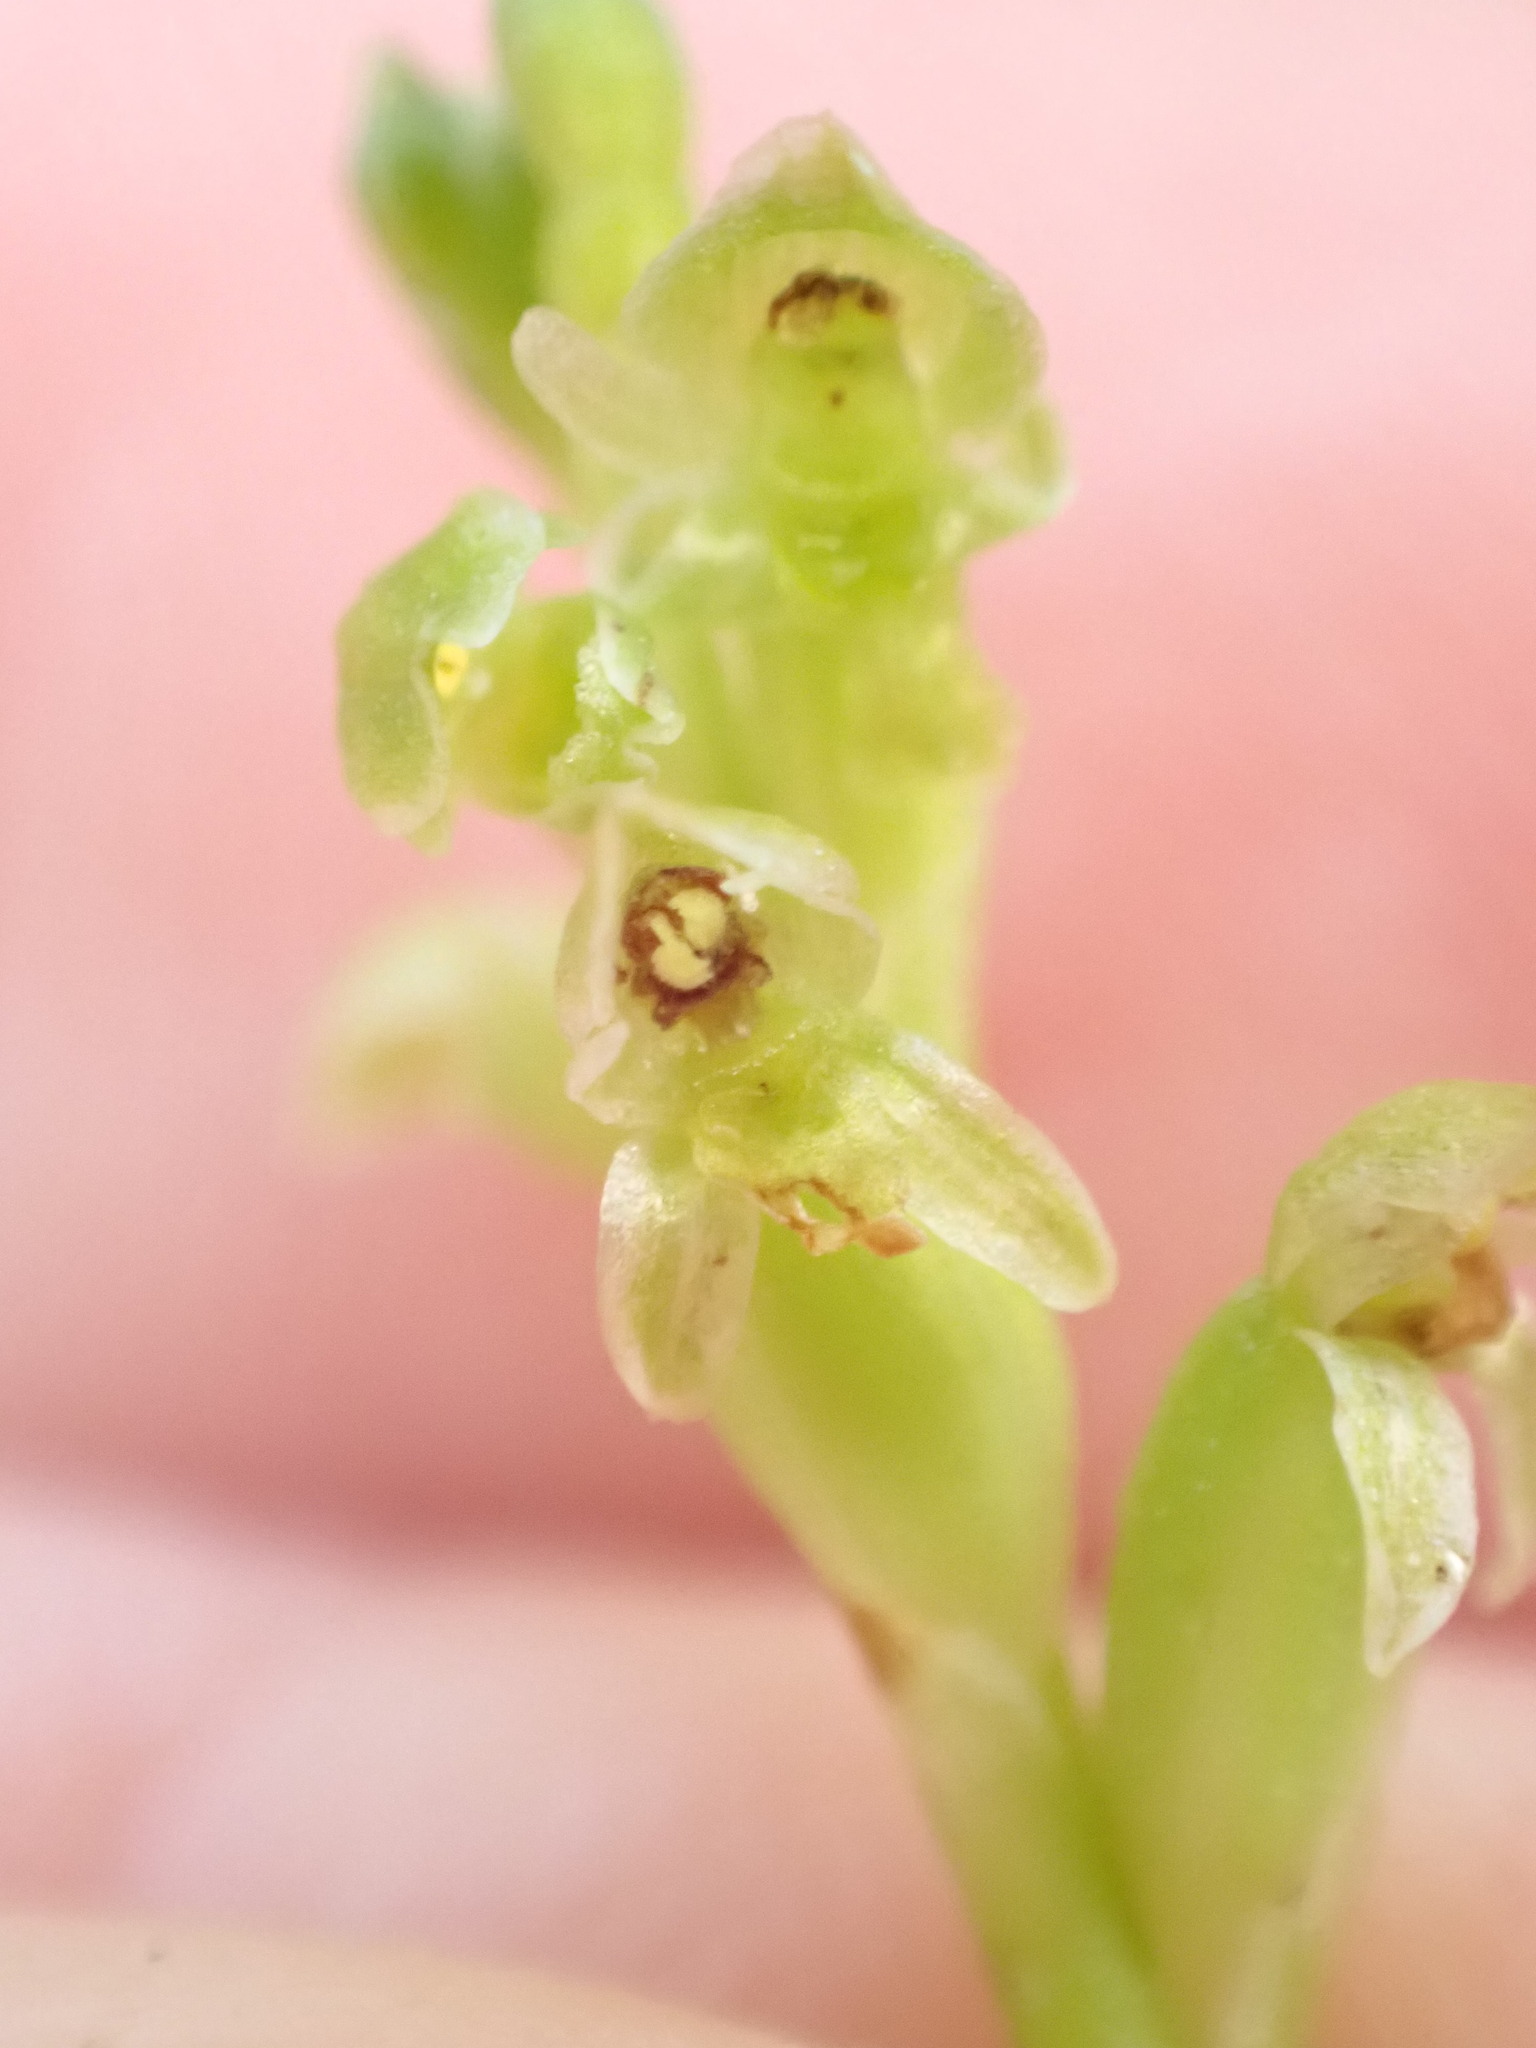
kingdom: Plantae
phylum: Tracheophyta
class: Liliopsida
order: Asparagales
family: Orchidaceae
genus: Microtis
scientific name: Microtis unifolia
